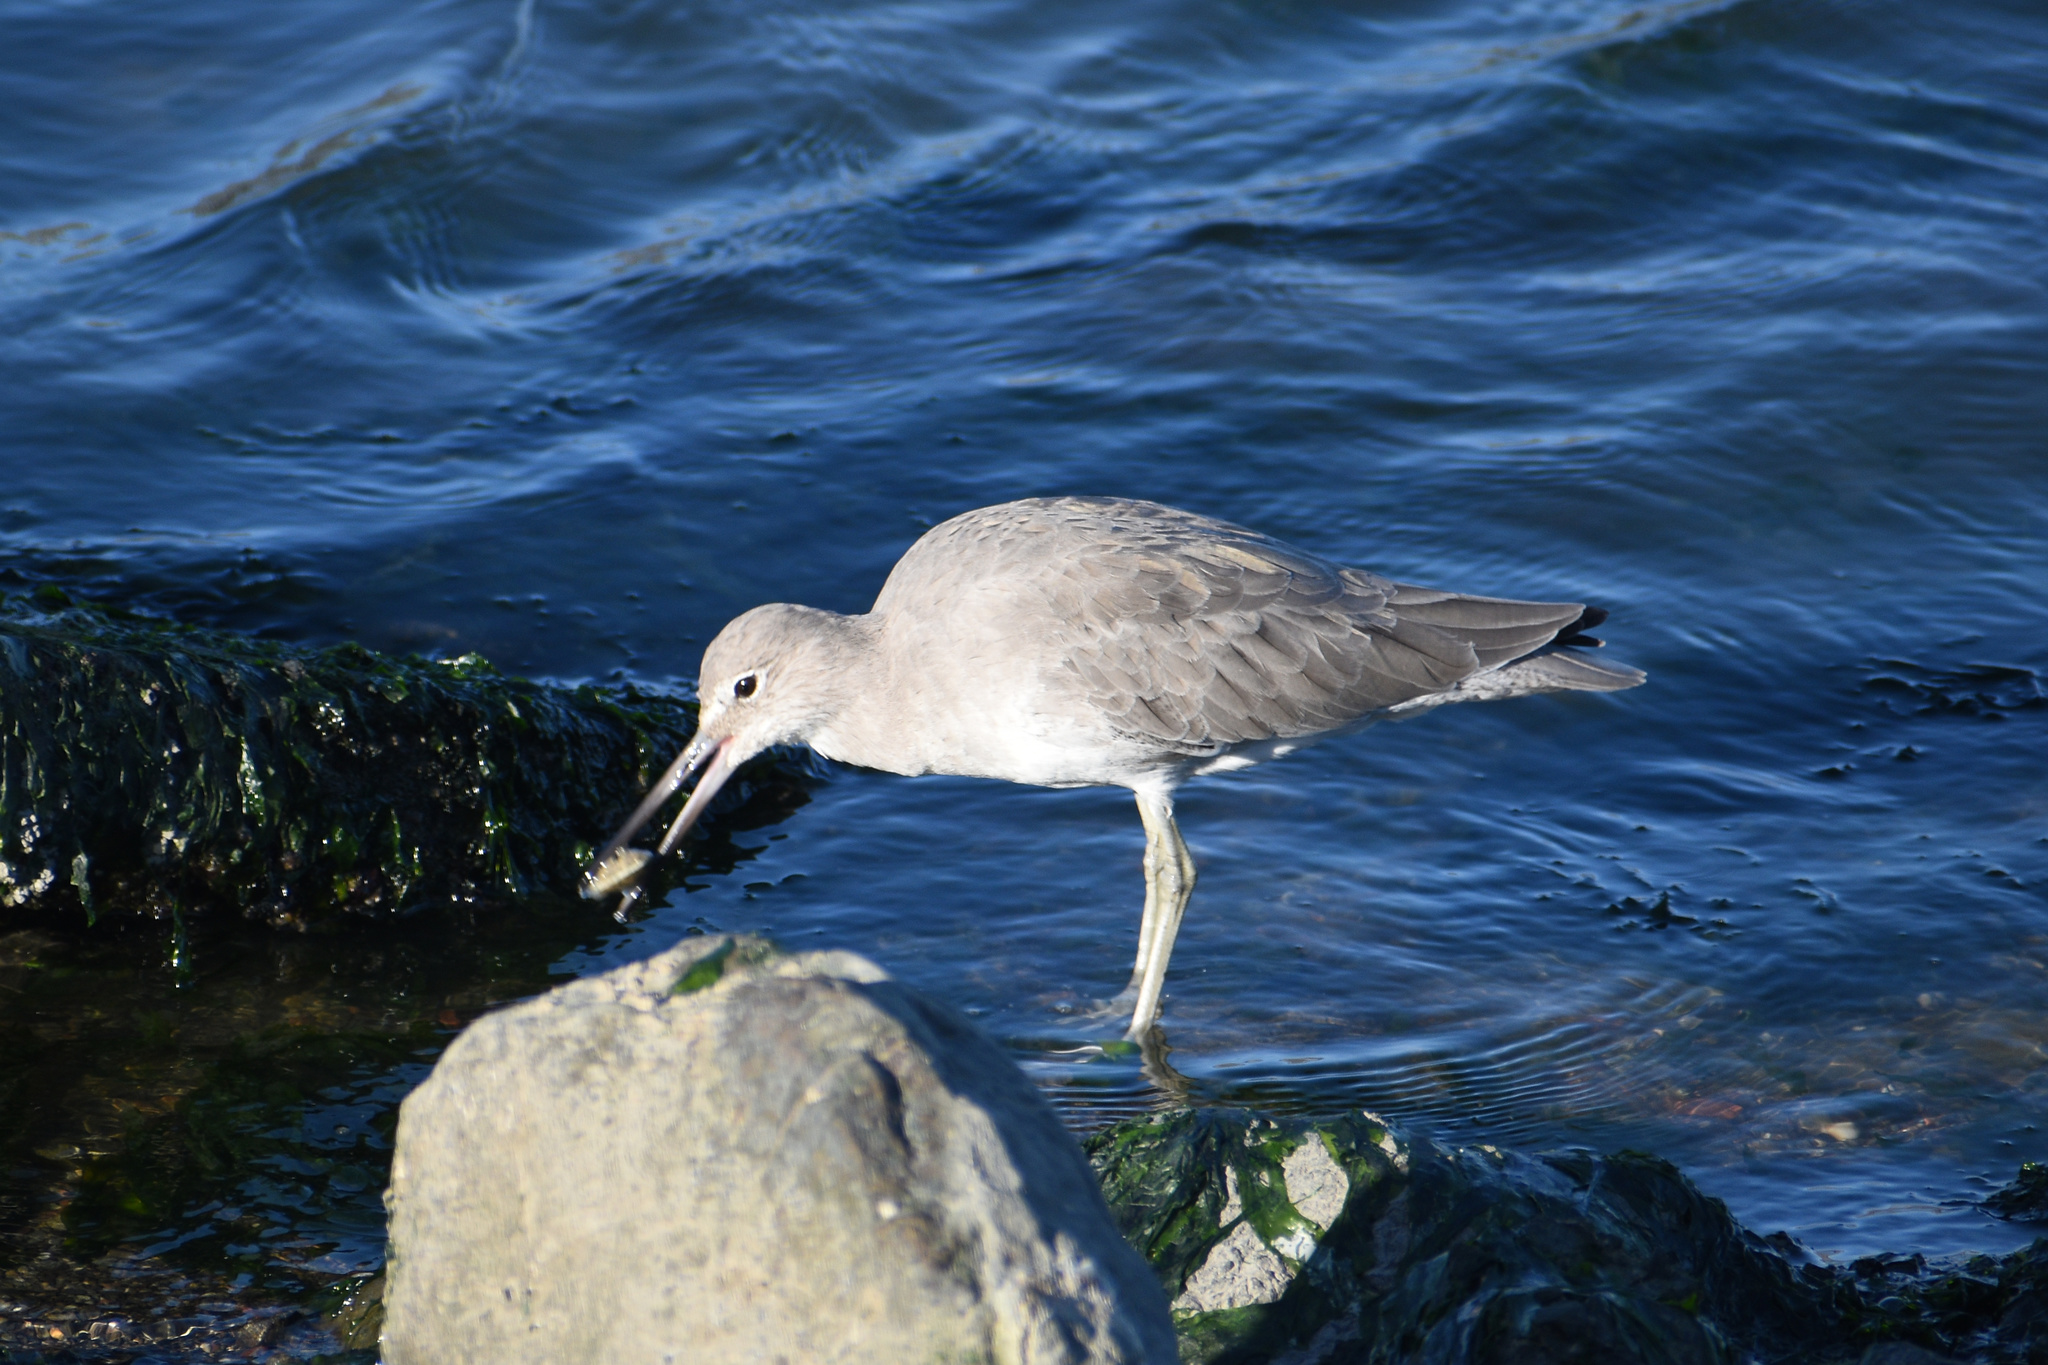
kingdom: Animalia
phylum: Chordata
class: Aves
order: Charadriiformes
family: Scolopacidae
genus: Tringa
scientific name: Tringa semipalmata
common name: Willet
